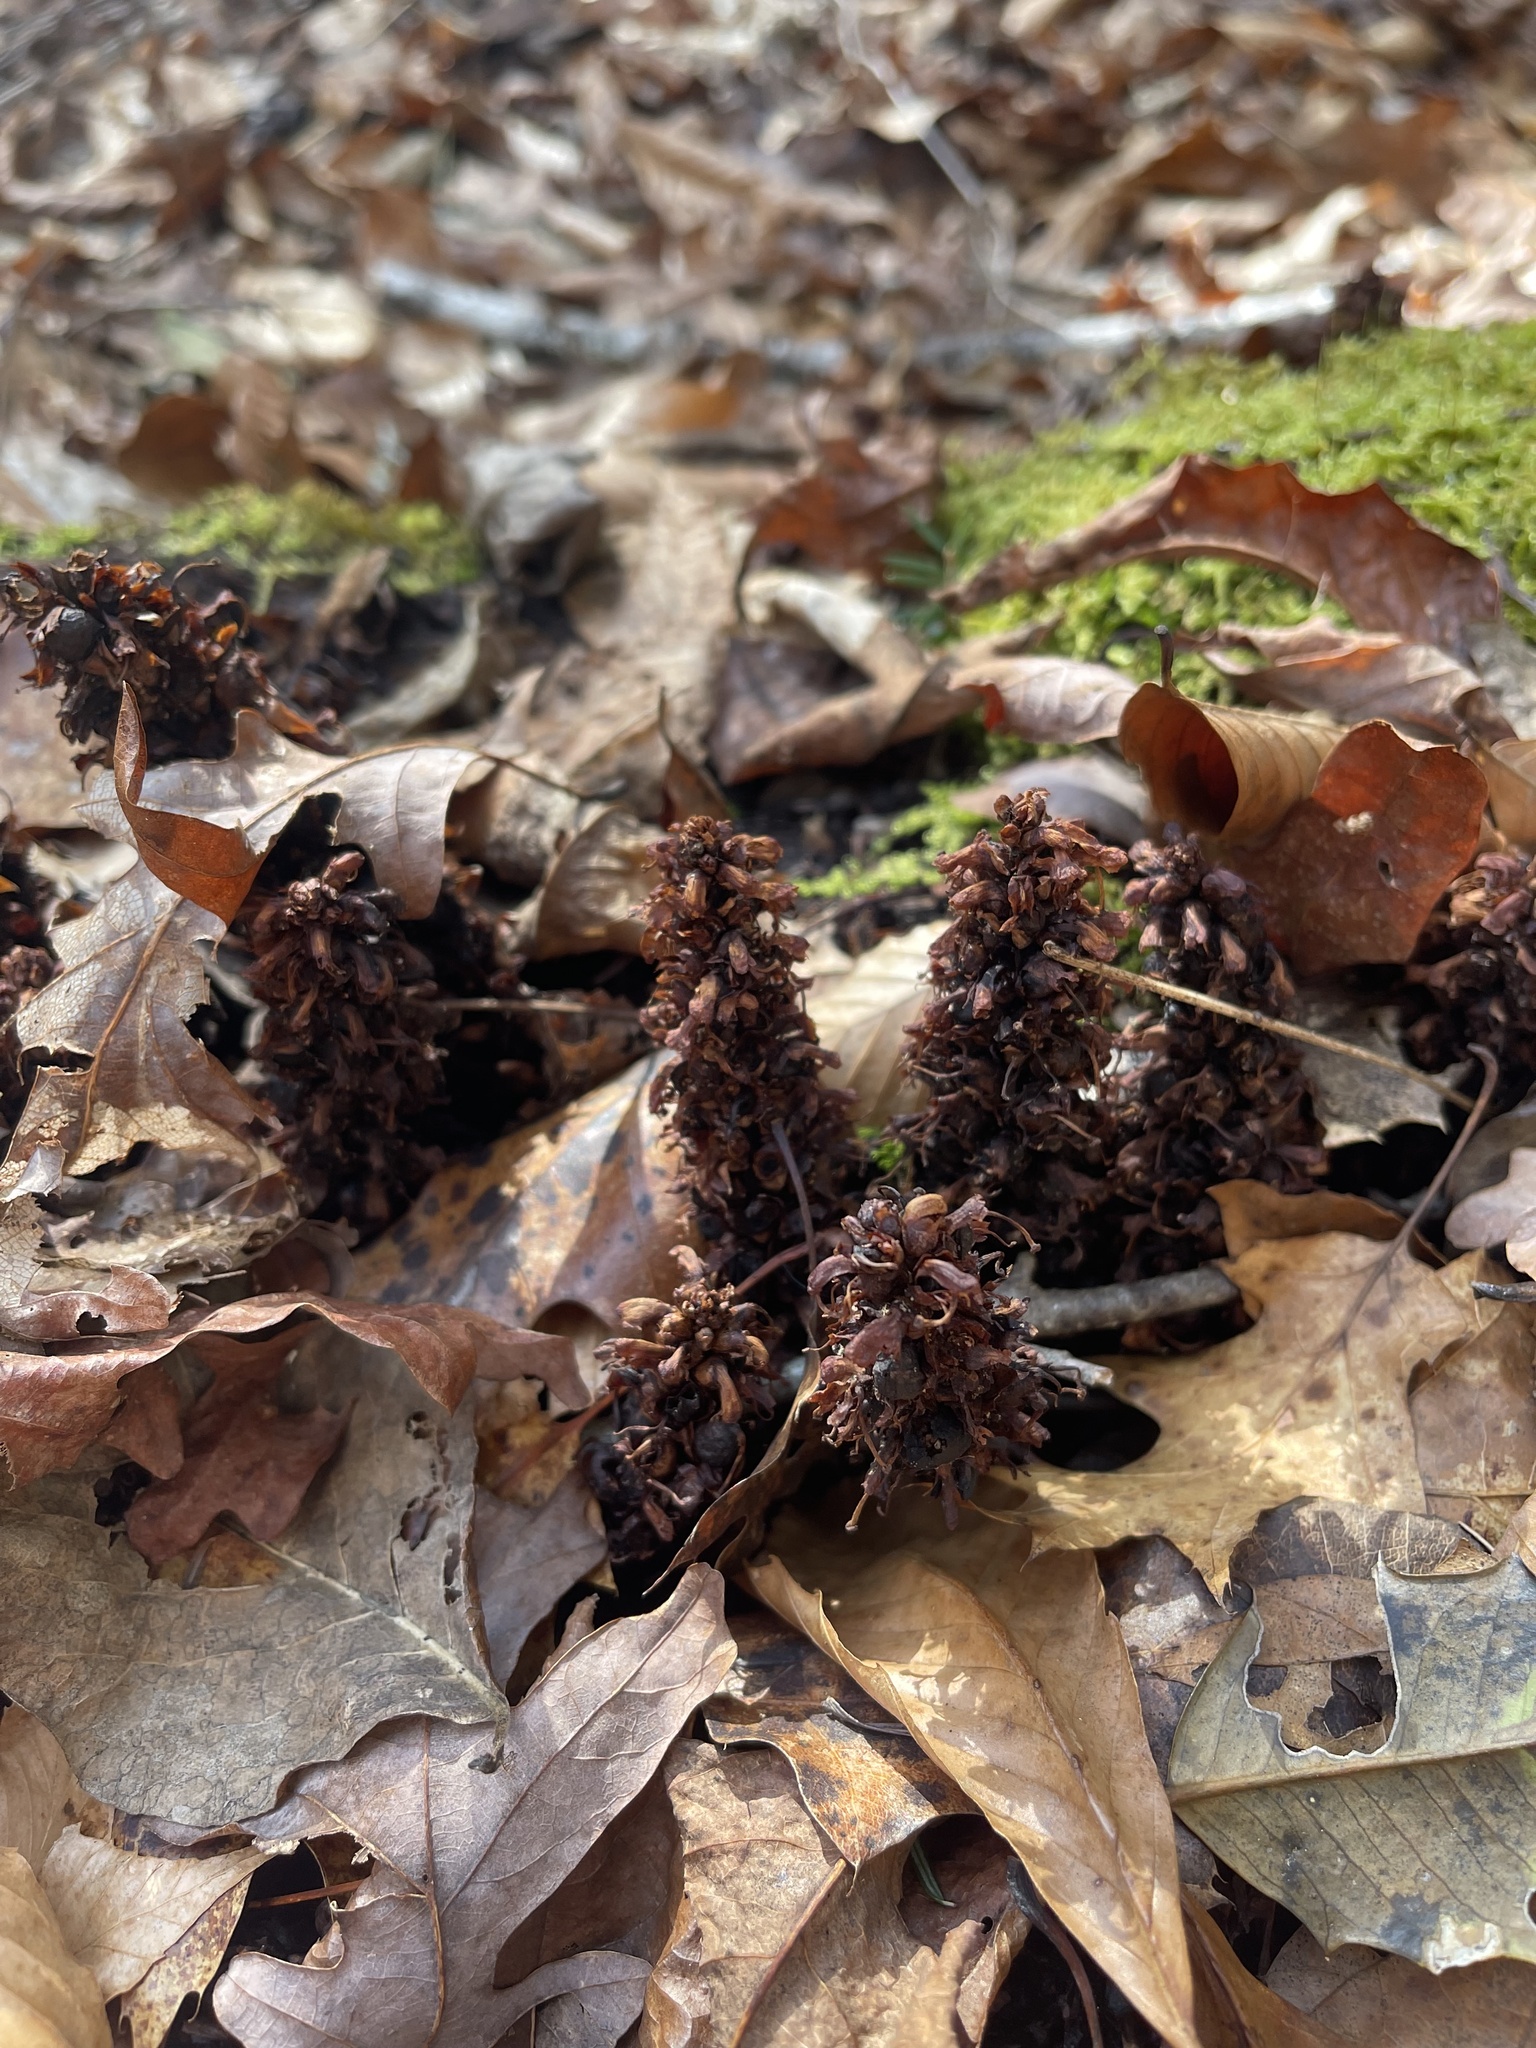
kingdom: Plantae
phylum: Tracheophyta
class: Magnoliopsida
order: Lamiales
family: Orobanchaceae
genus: Conopholis
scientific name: Conopholis americana
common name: American cancer-root
